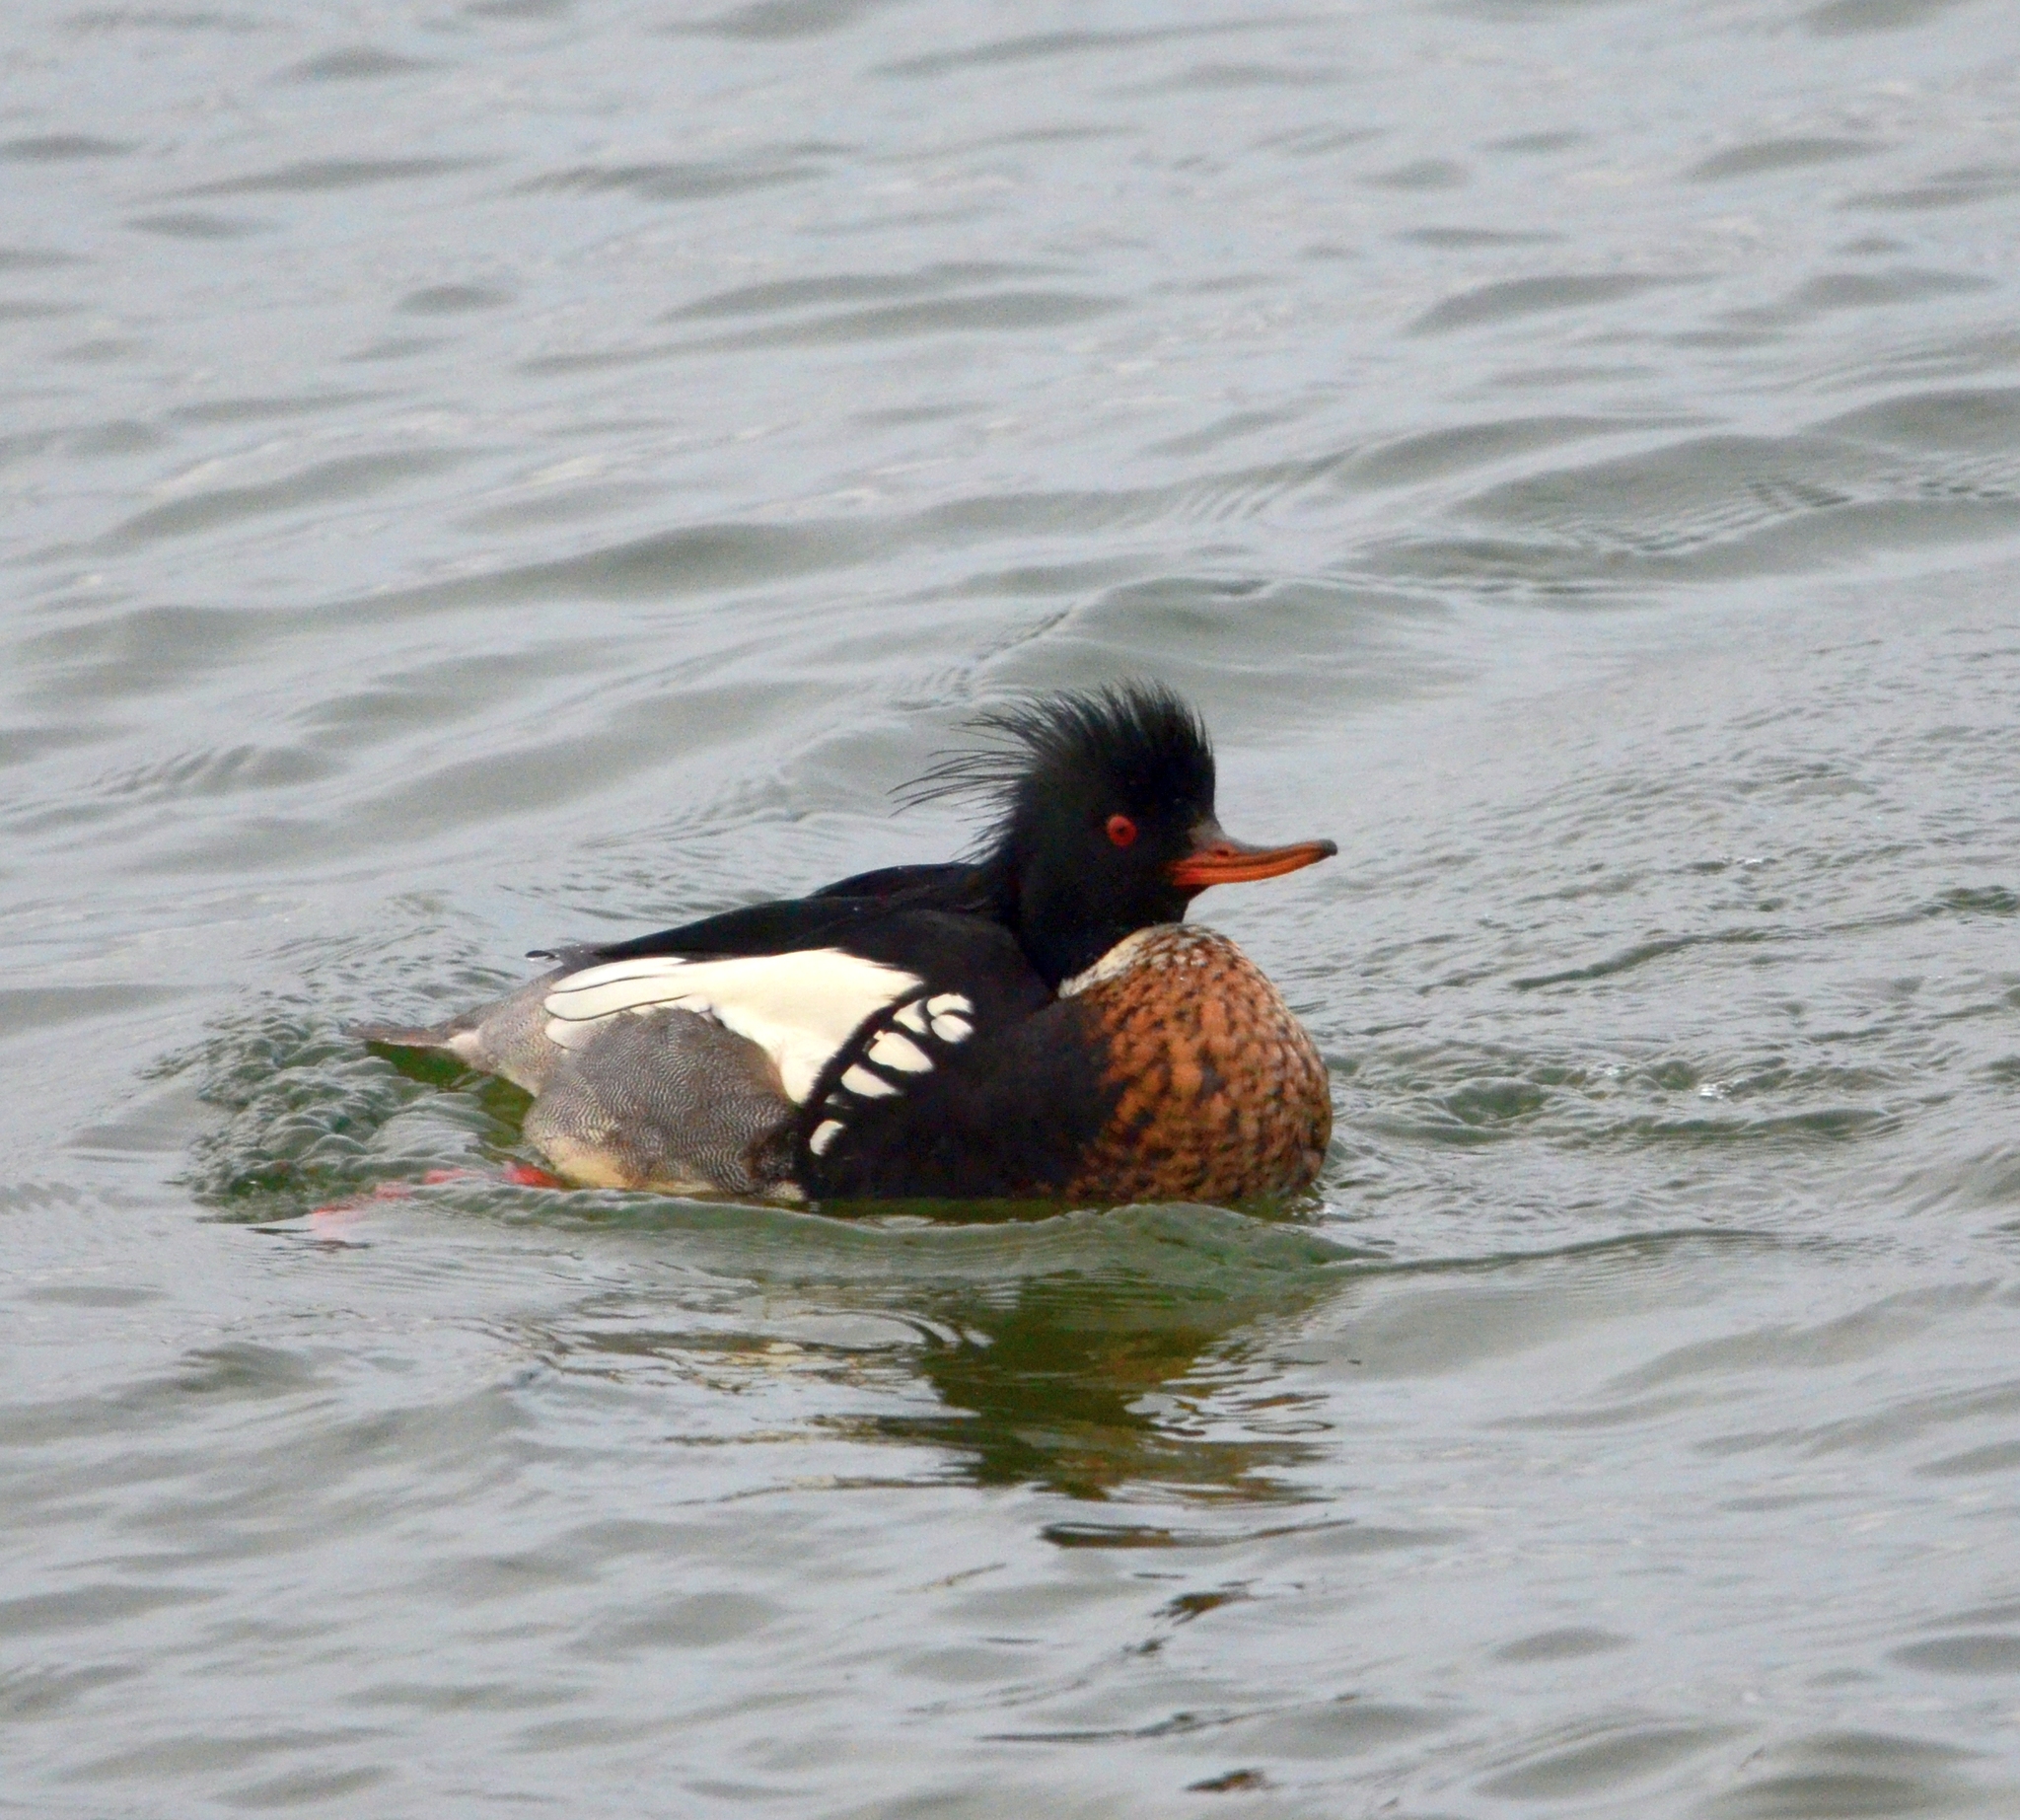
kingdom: Animalia
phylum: Chordata
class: Aves
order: Anseriformes
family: Anatidae
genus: Mergus
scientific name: Mergus serrator
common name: Red-breasted merganser
